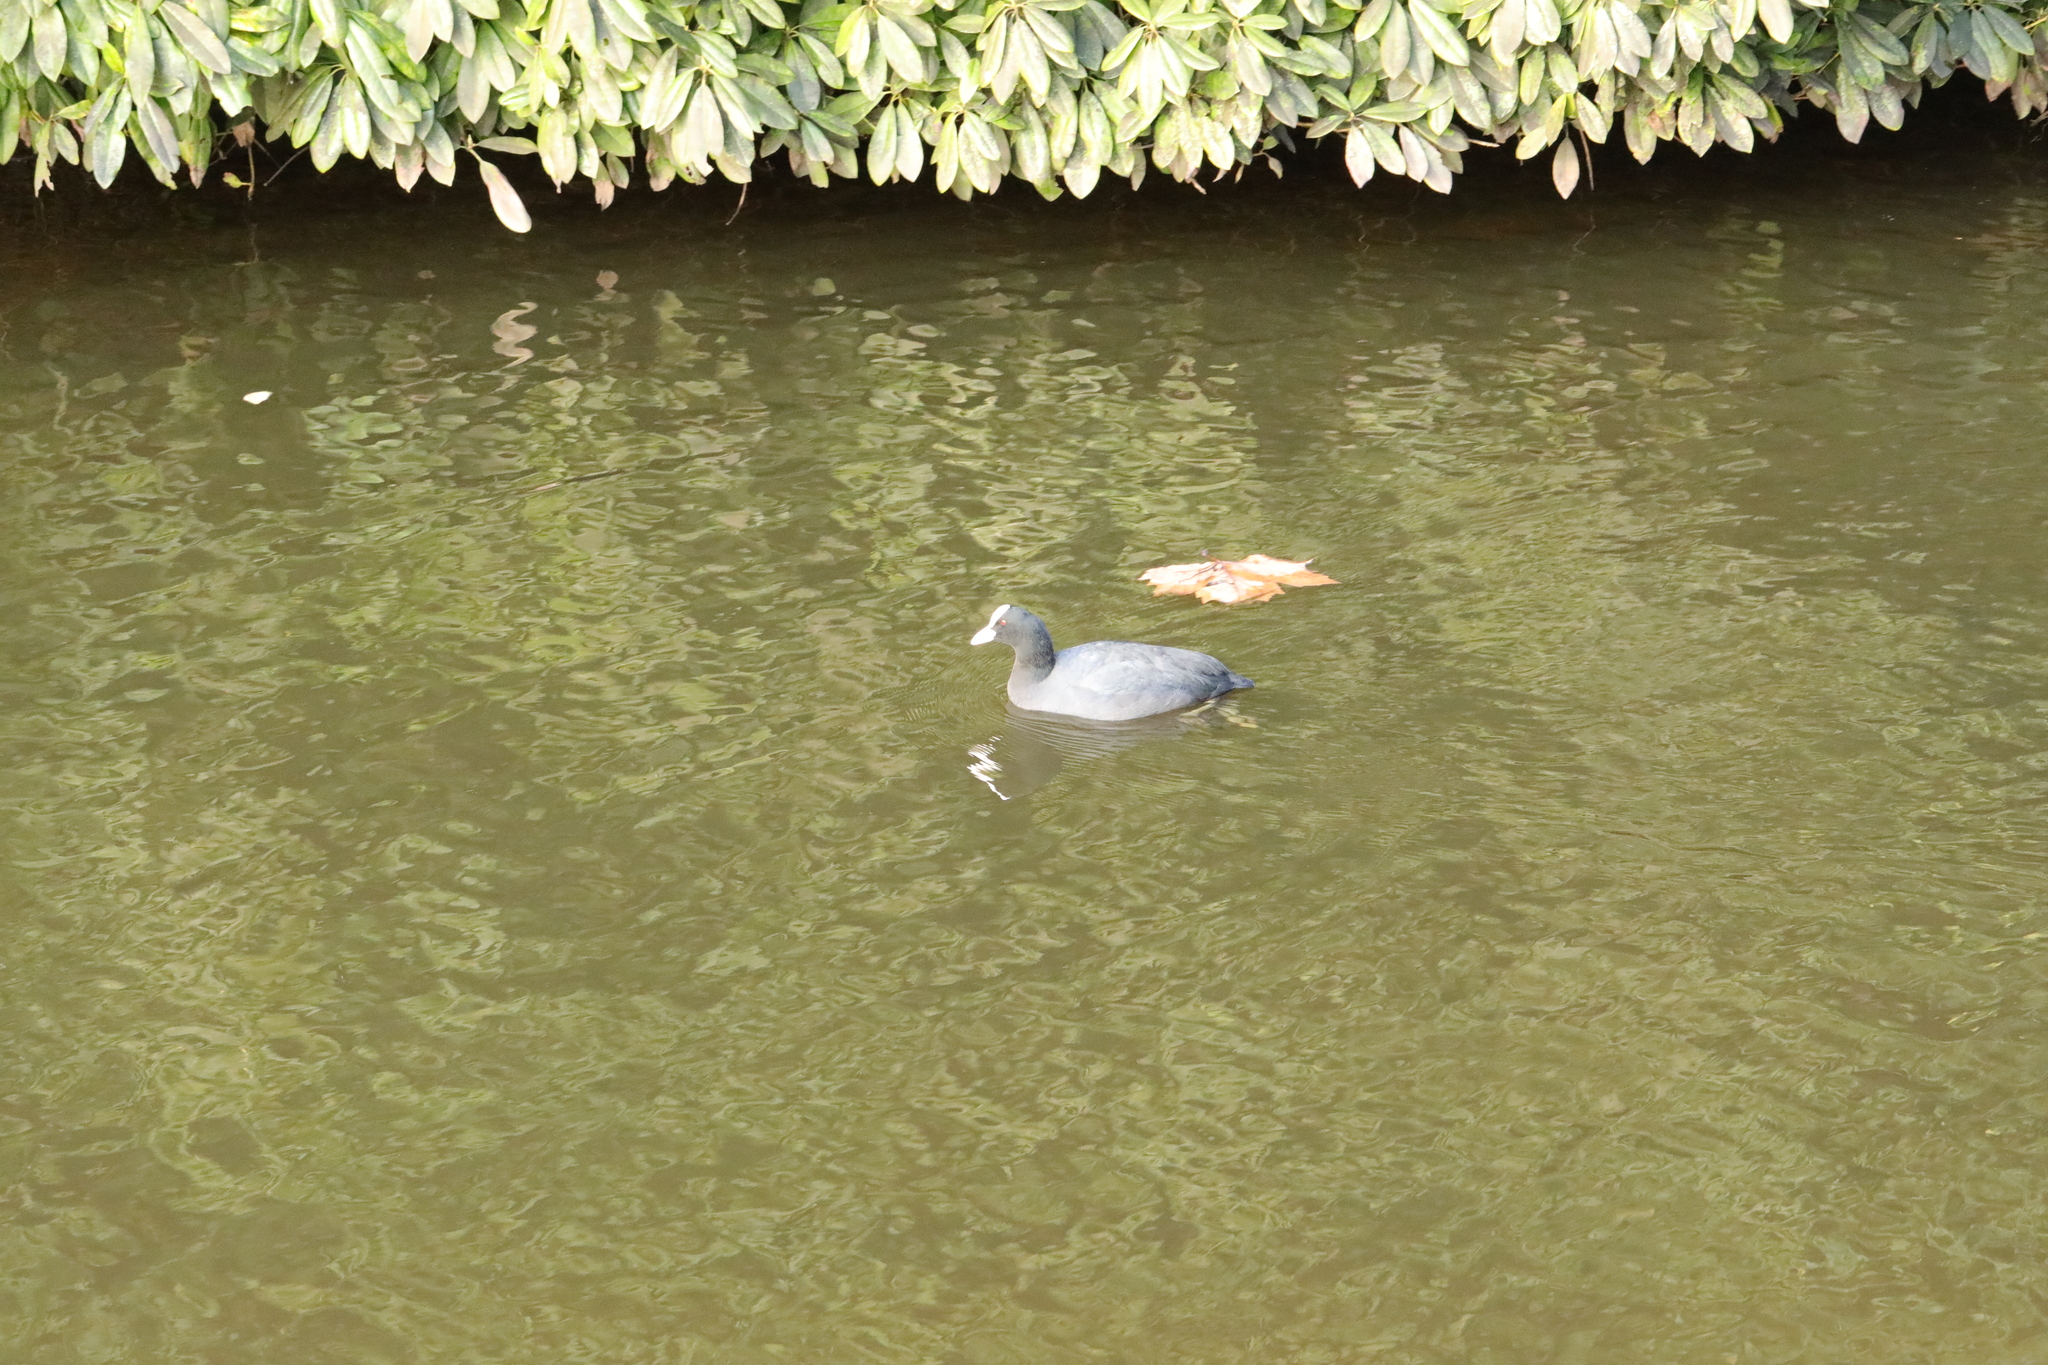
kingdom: Animalia
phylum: Chordata
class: Aves
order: Anseriformes
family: Anatidae
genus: Anas
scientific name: Anas platyrhynchos
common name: Mallard
